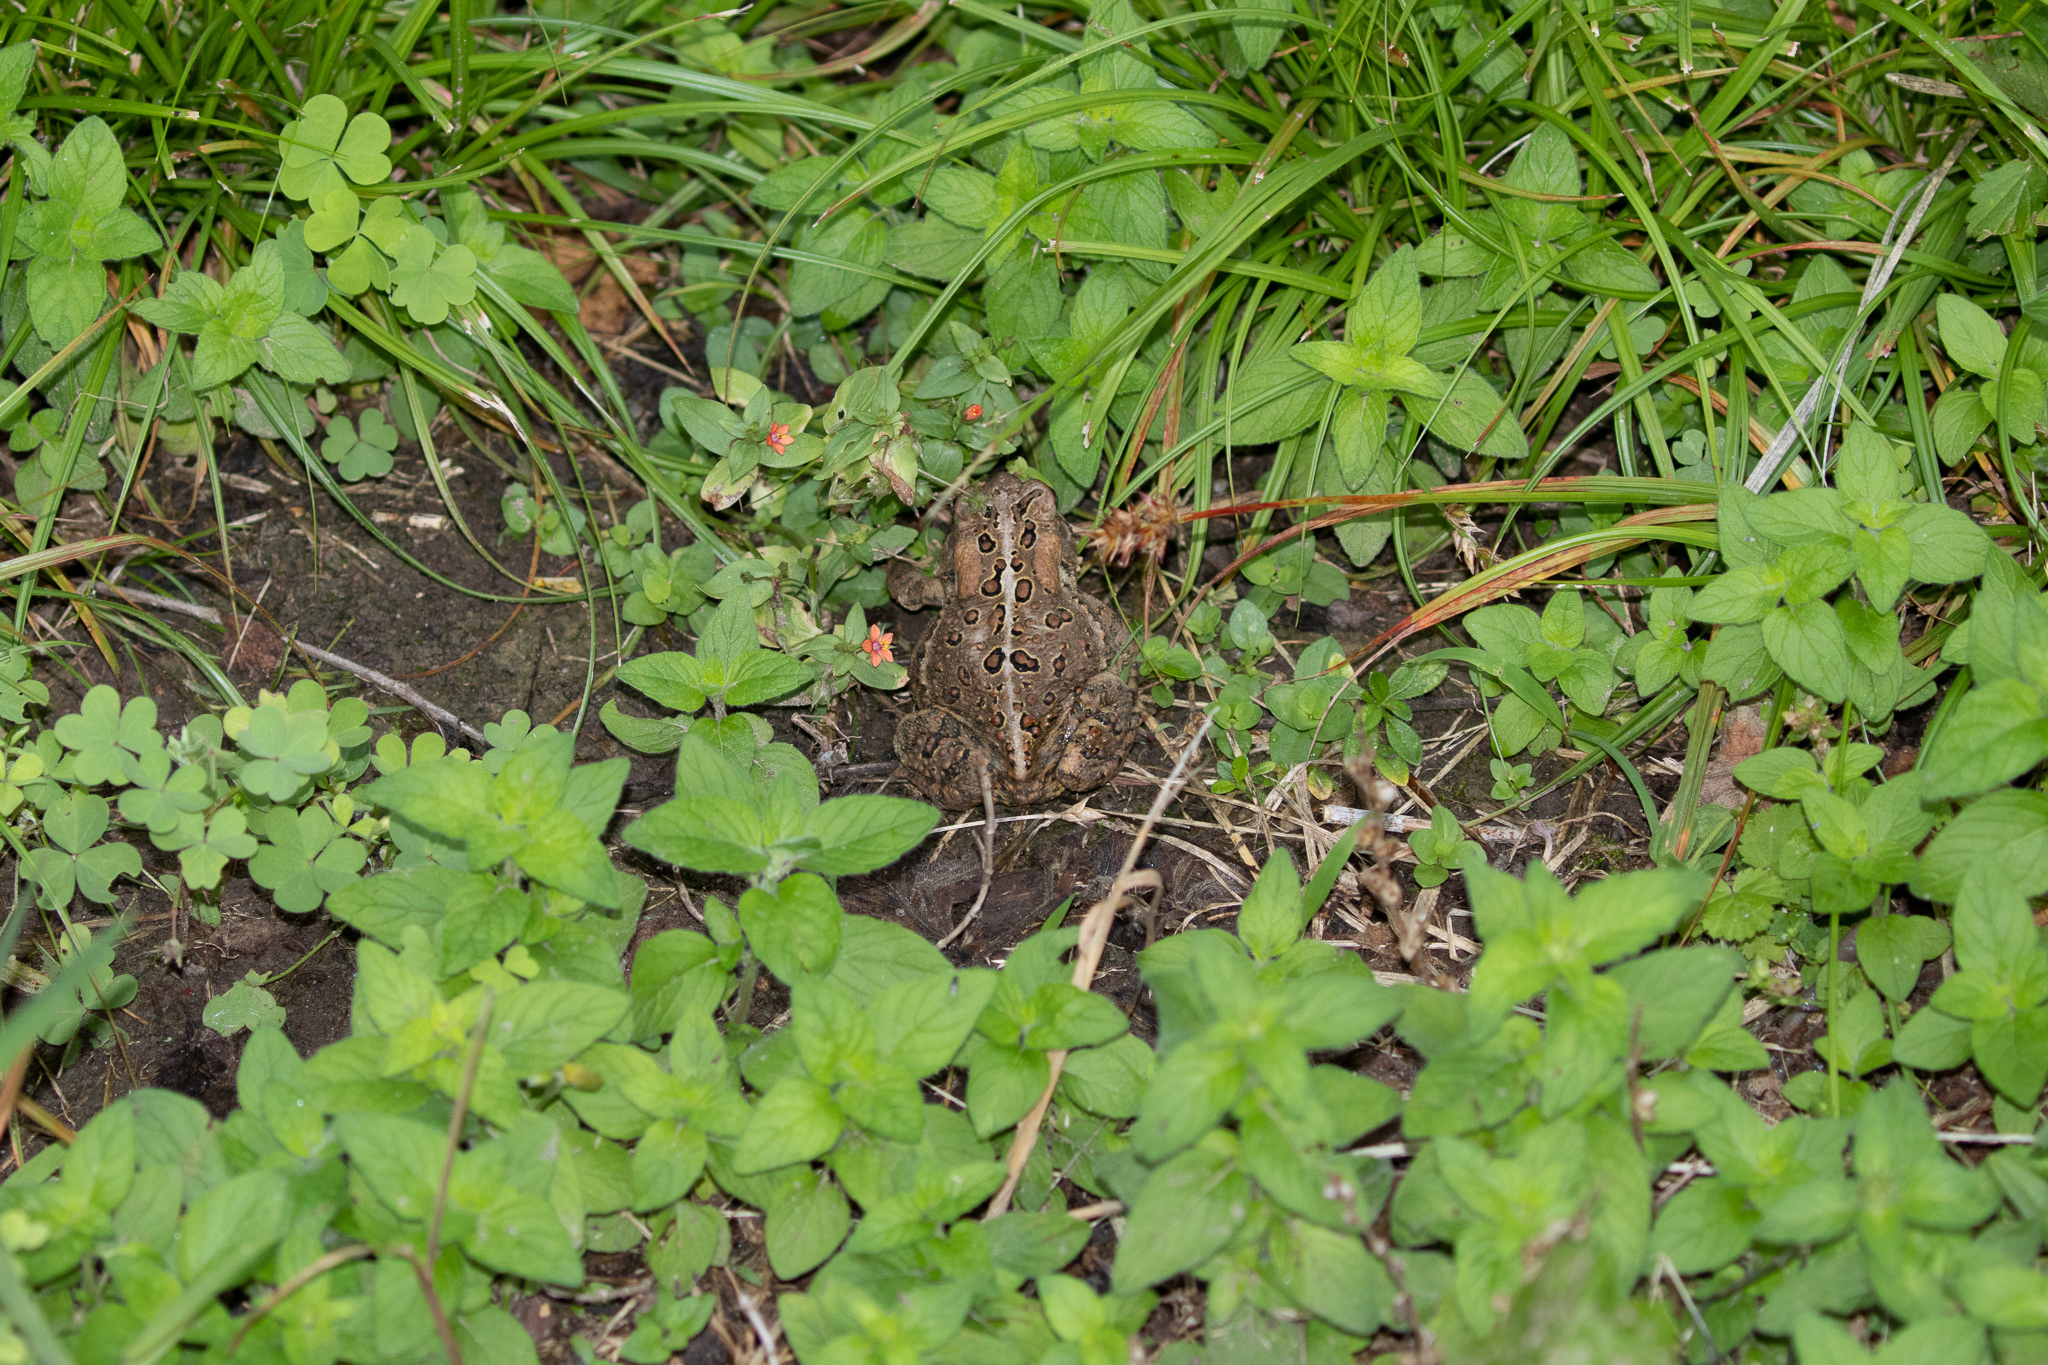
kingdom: Animalia
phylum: Chordata
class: Amphibia
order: Anura
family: Bufonidae
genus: Anaxyrus
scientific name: Anaxyrus americanus
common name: American toad
